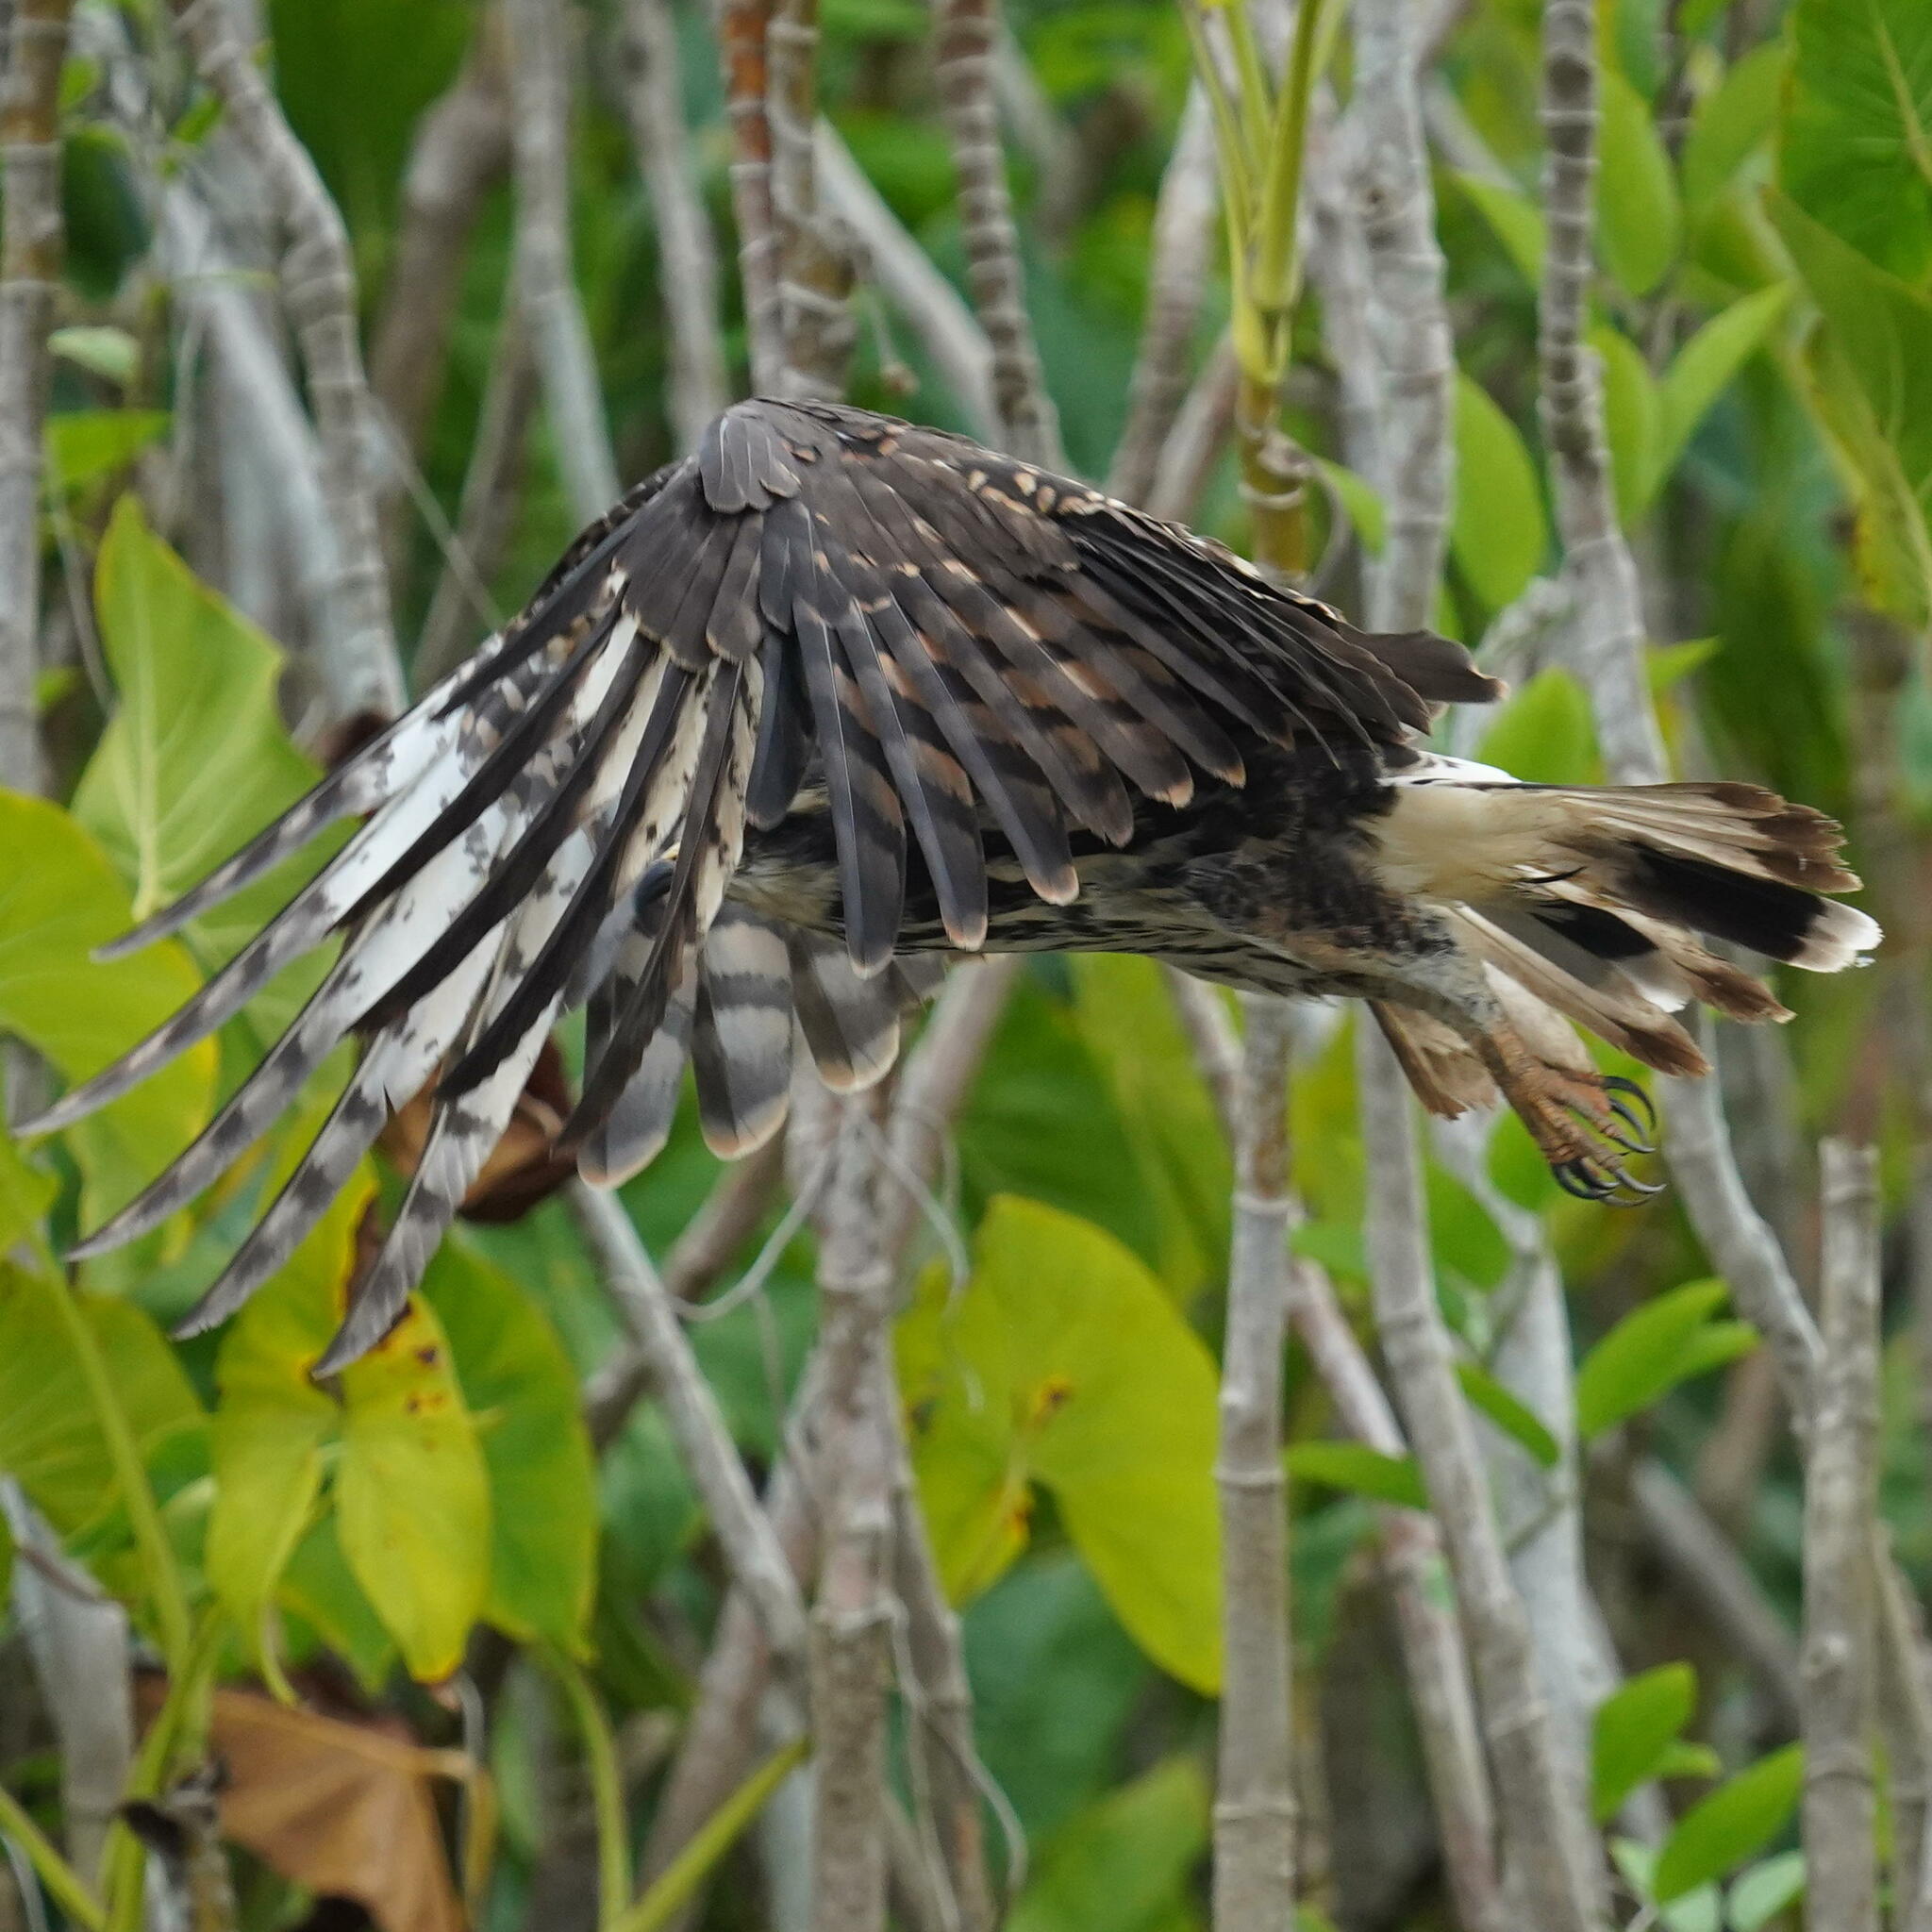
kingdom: Animalia
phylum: Chordata
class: Aves
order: Accipitriformes
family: Accipitridae
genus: Rostrhamus
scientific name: Rostrhamus sociabilis
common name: Snail kite
